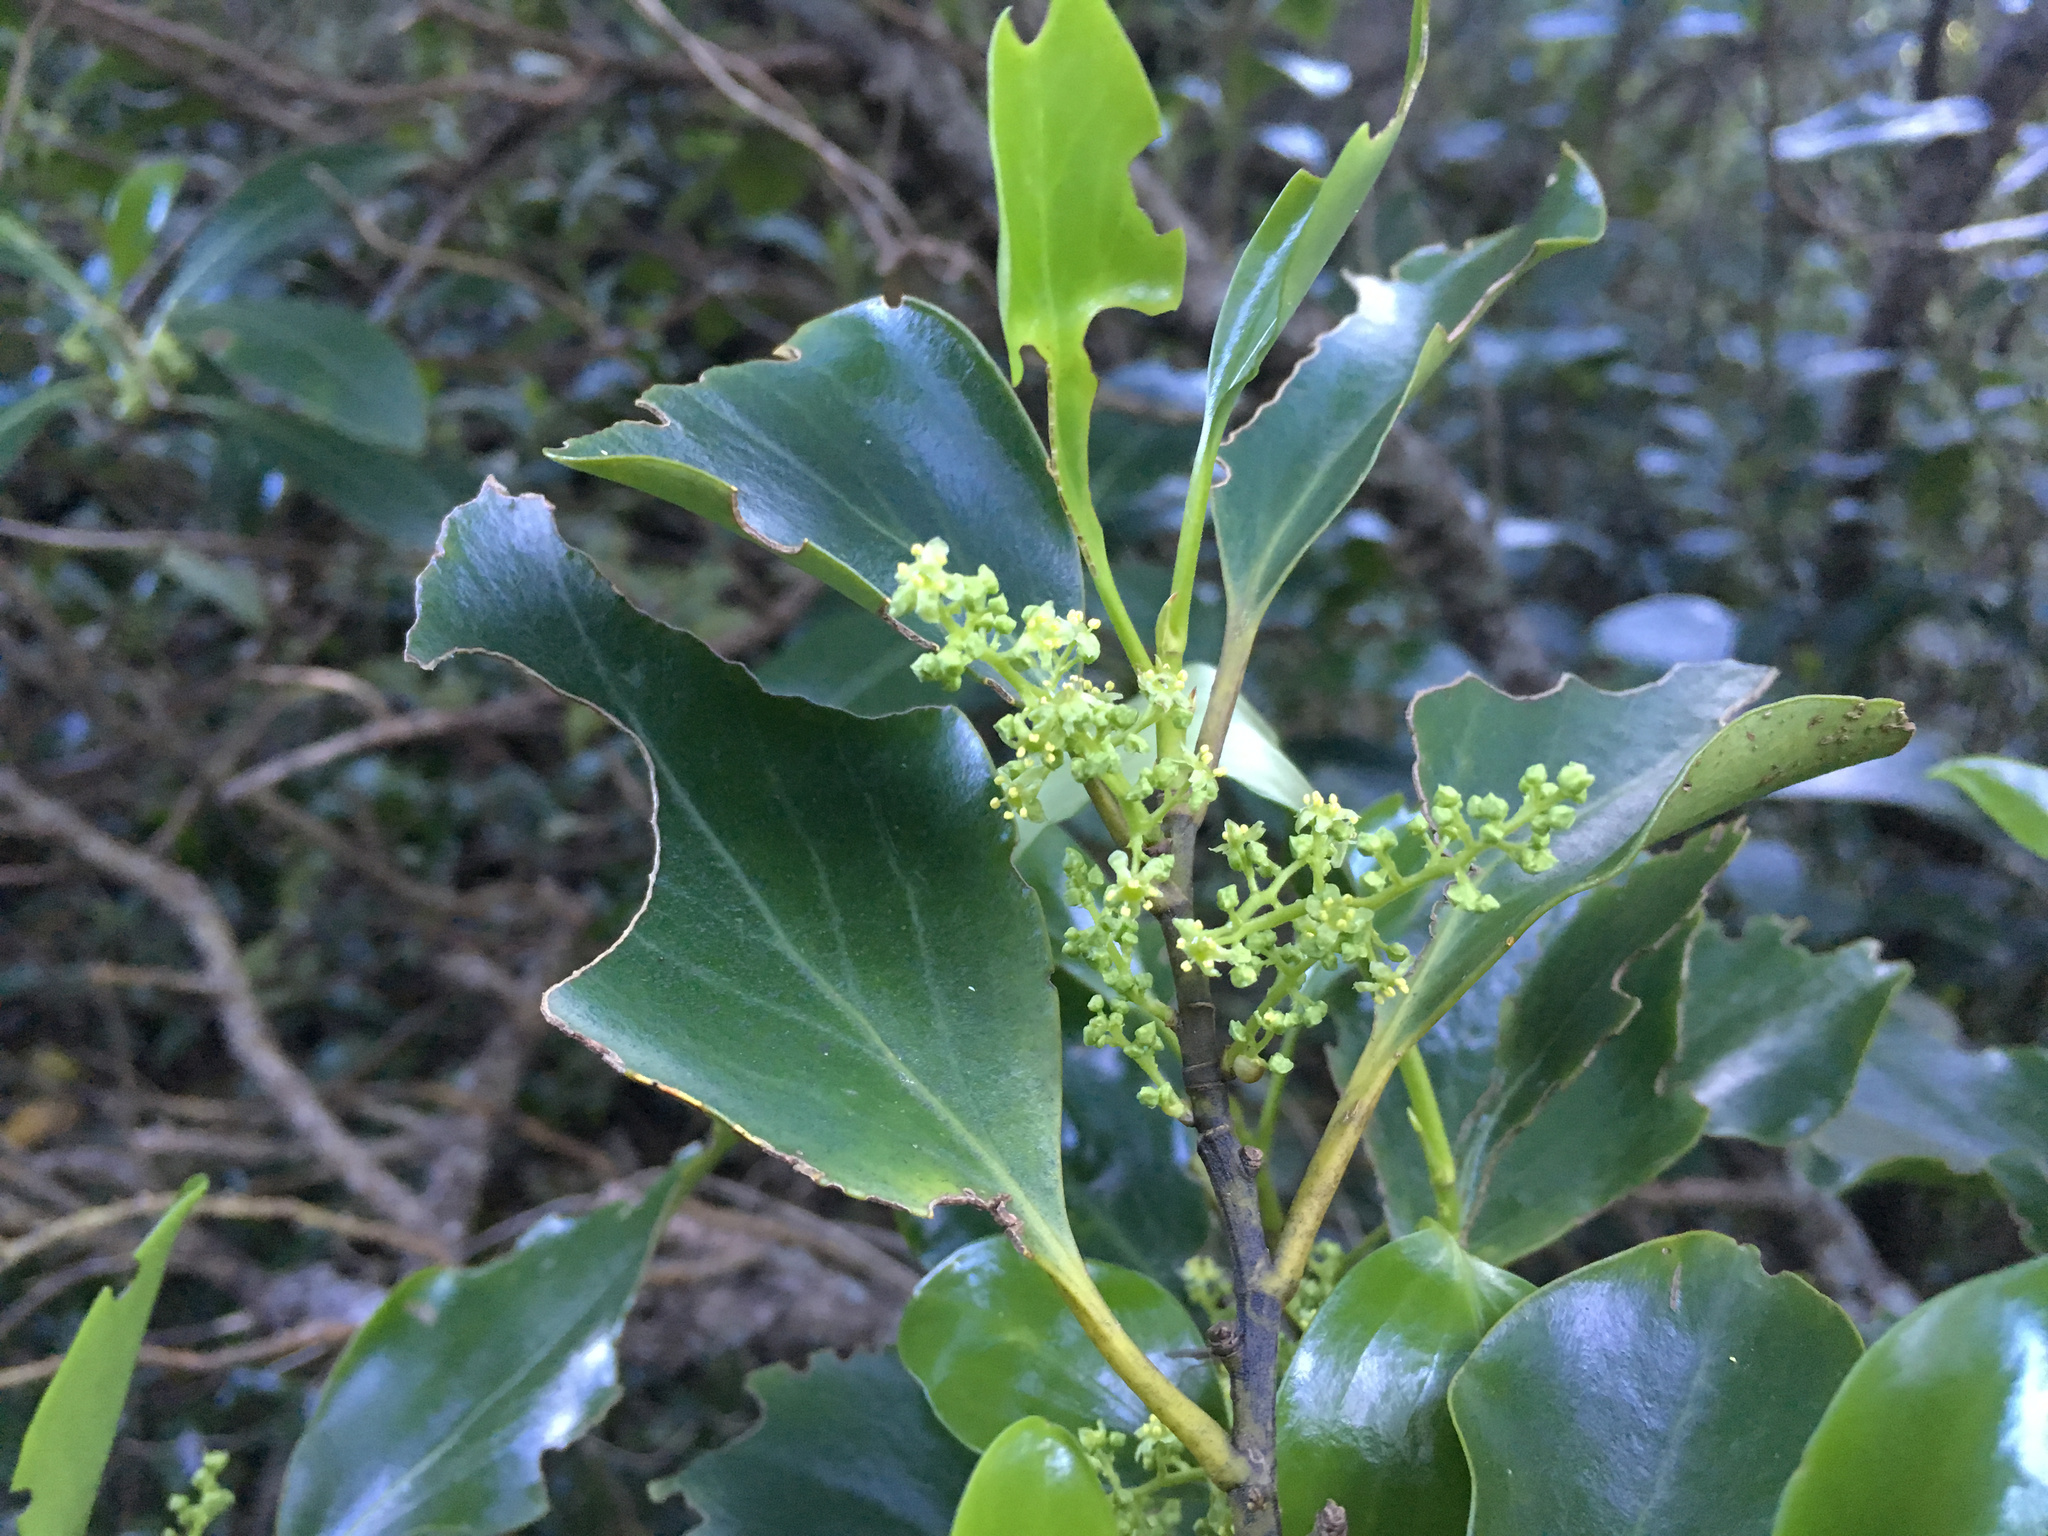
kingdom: Plantae
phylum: Tracheophyta
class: Magnoliopsida
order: Apiales
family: Griseliniaceae
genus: Griselinia
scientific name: Griselinia littoralis
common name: New zealand broadleaf
